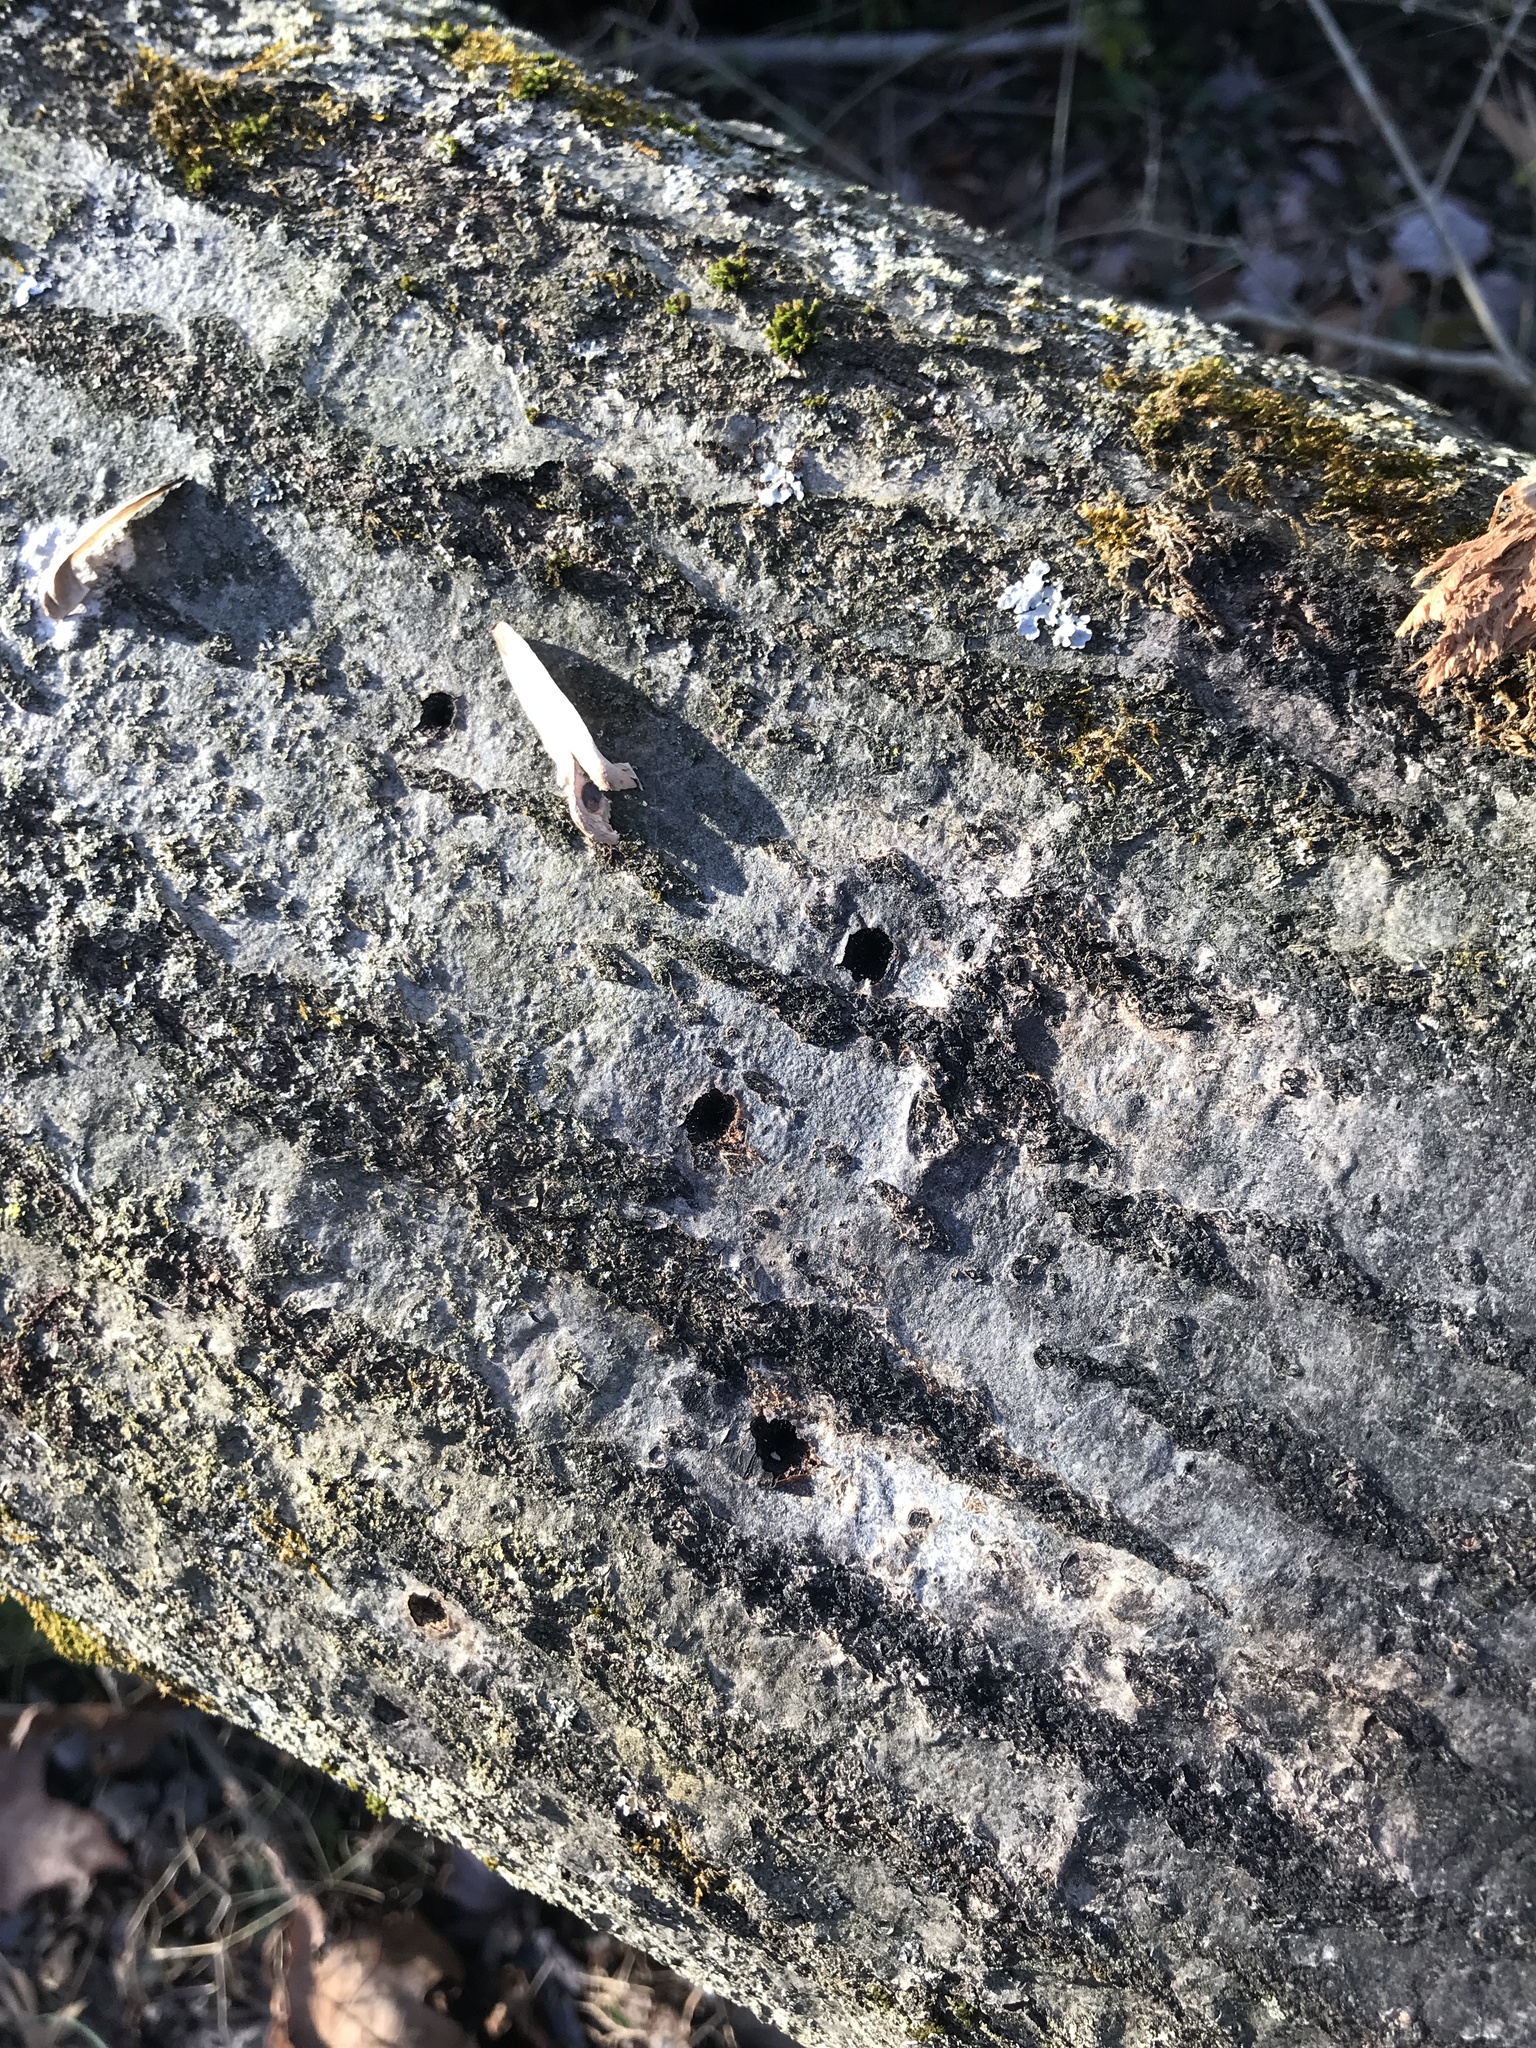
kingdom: Animalia
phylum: Chordata
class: Aves
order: Piciformes
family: Picidae
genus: Sphyrapicus
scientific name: Sphyrapicus varius
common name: Yellow-bellied sapsucker
